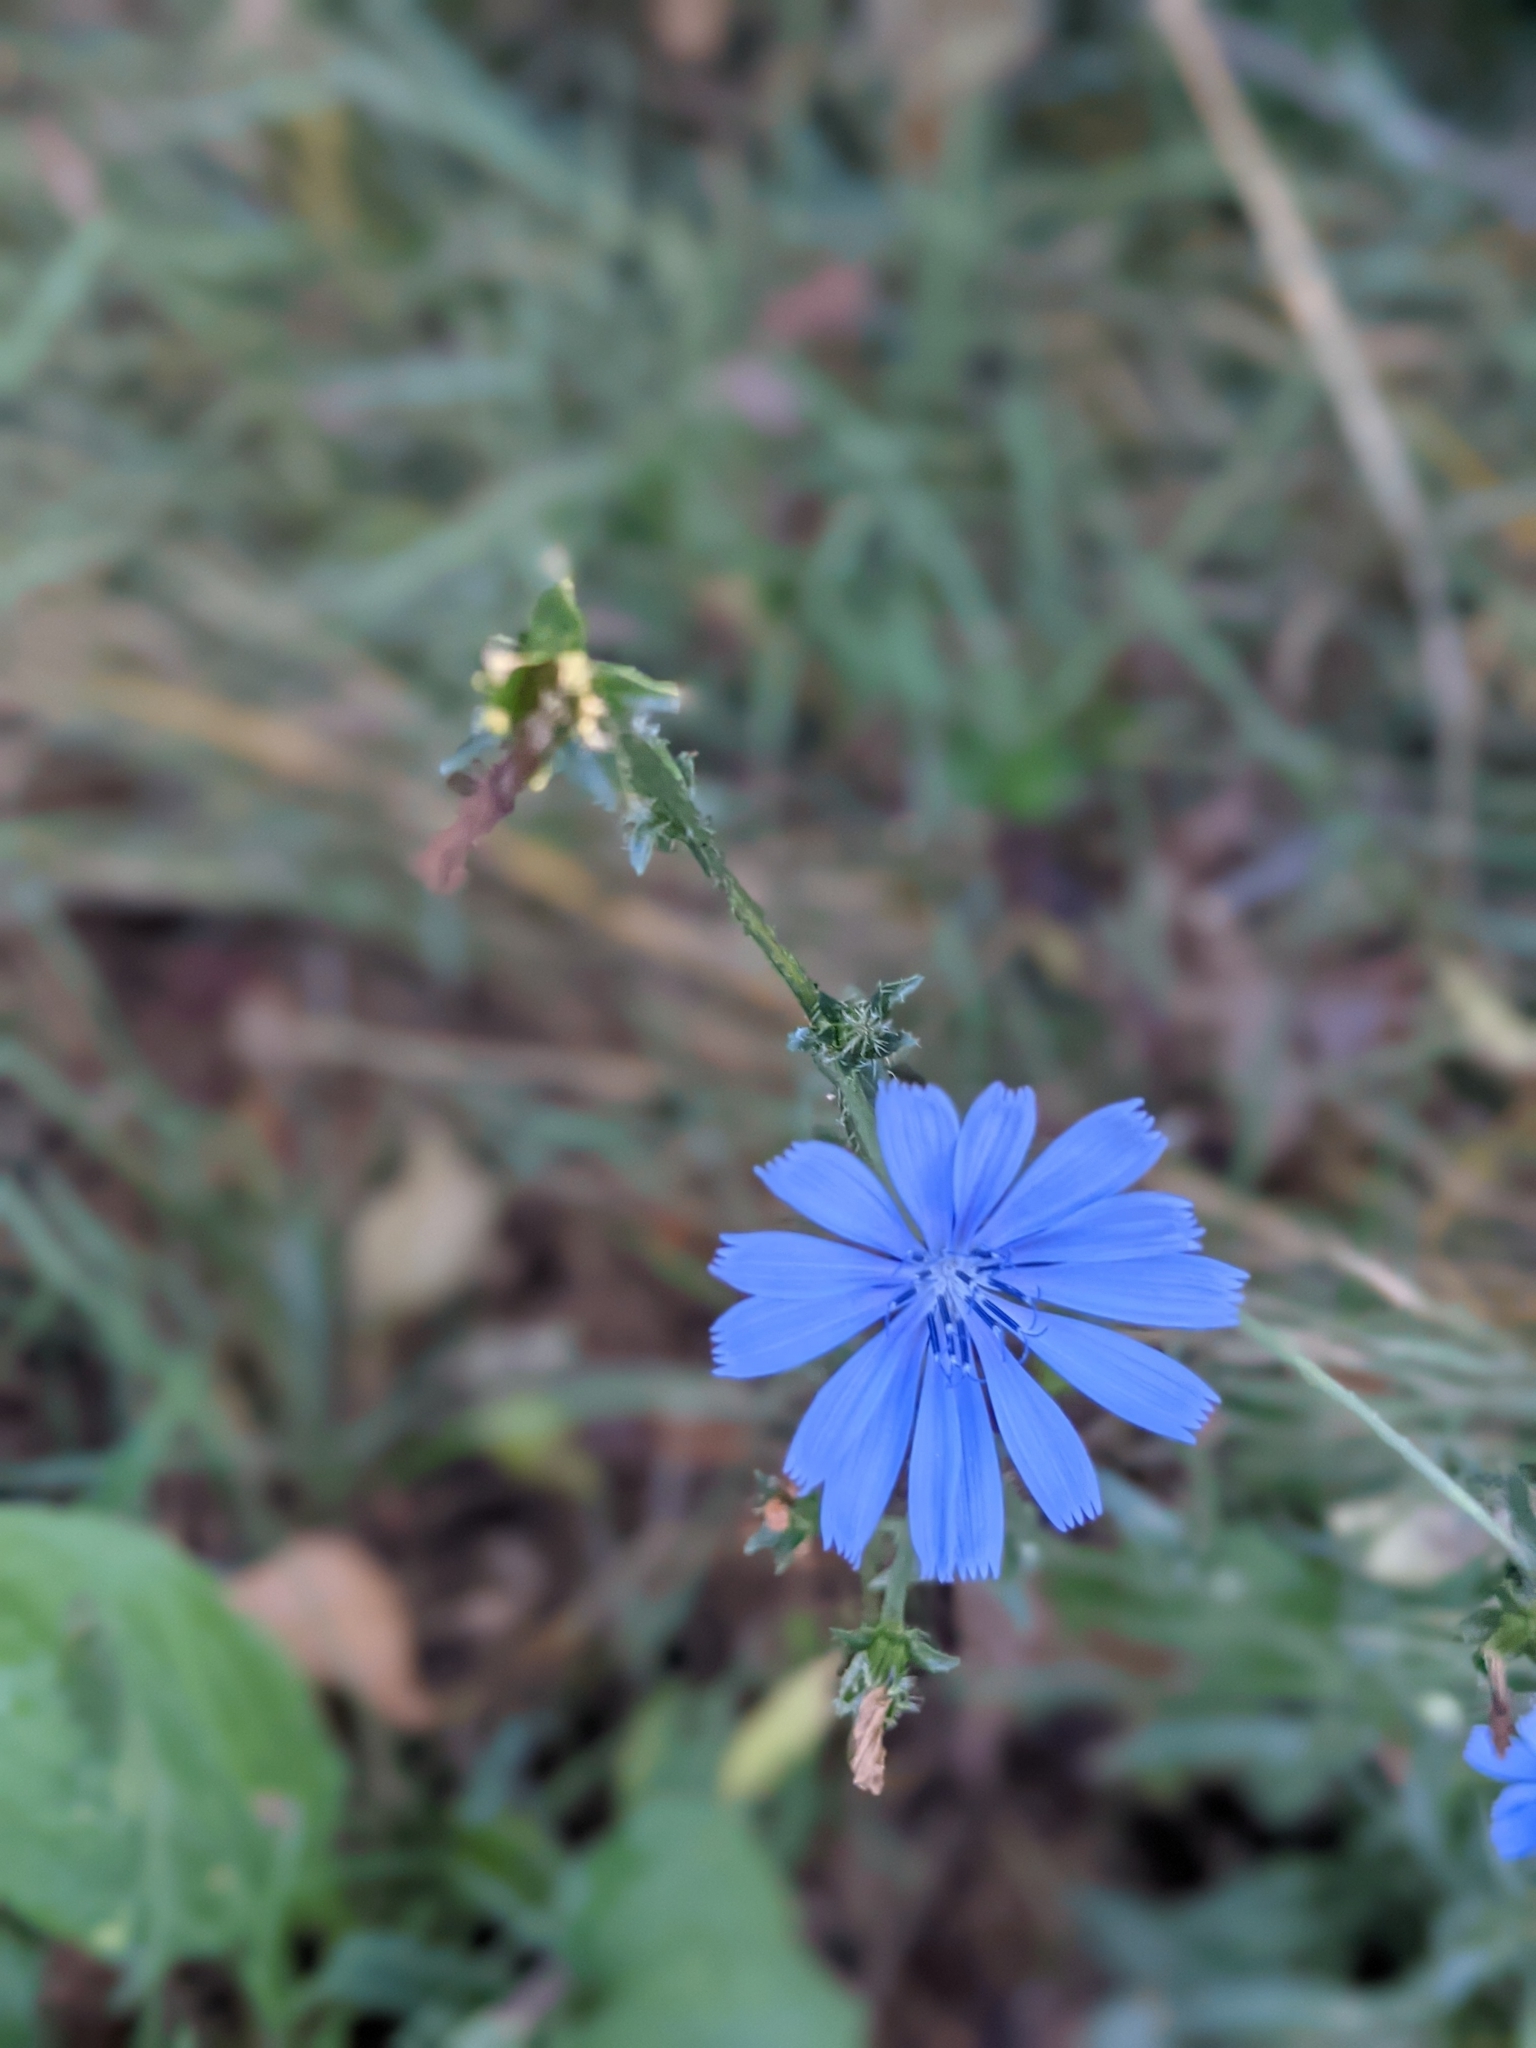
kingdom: Plantae
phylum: Tracheophyta
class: Magnoliopsida
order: Asterales
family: Asteraceae
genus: Cichorium
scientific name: Cichorium intybus
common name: Chicory
